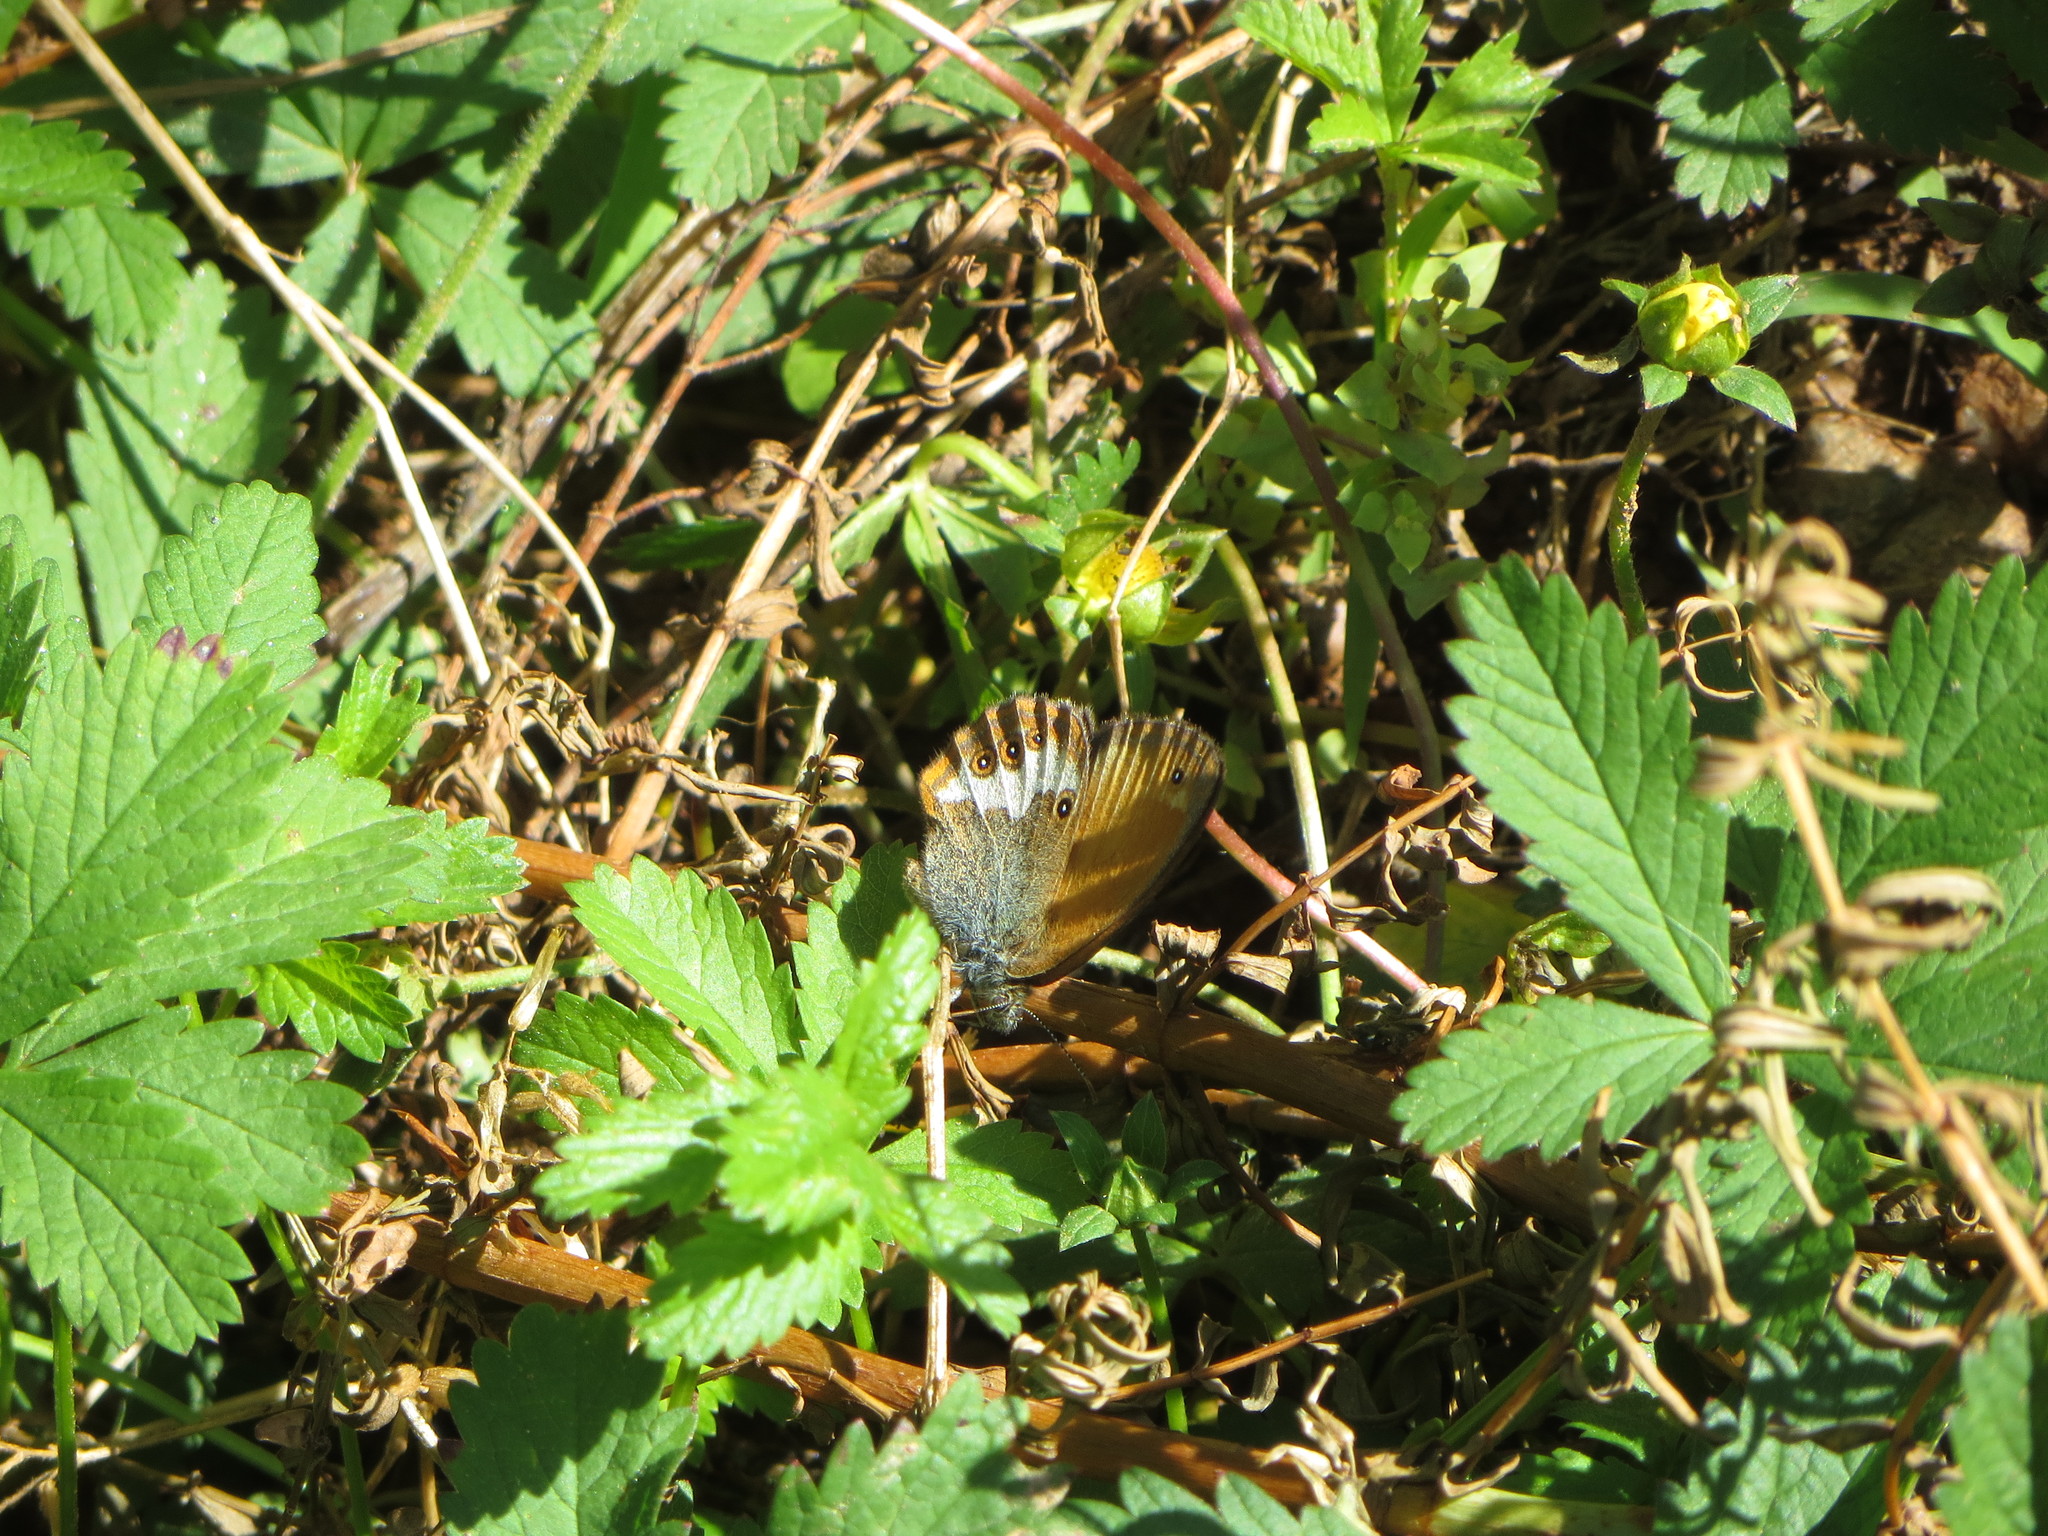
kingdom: Animalia
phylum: Arthropoda
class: Insecta
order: Lepidoptera
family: Nymphalidae
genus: Coenonympha
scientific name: Coenonympha arcania
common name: Pearly heath
